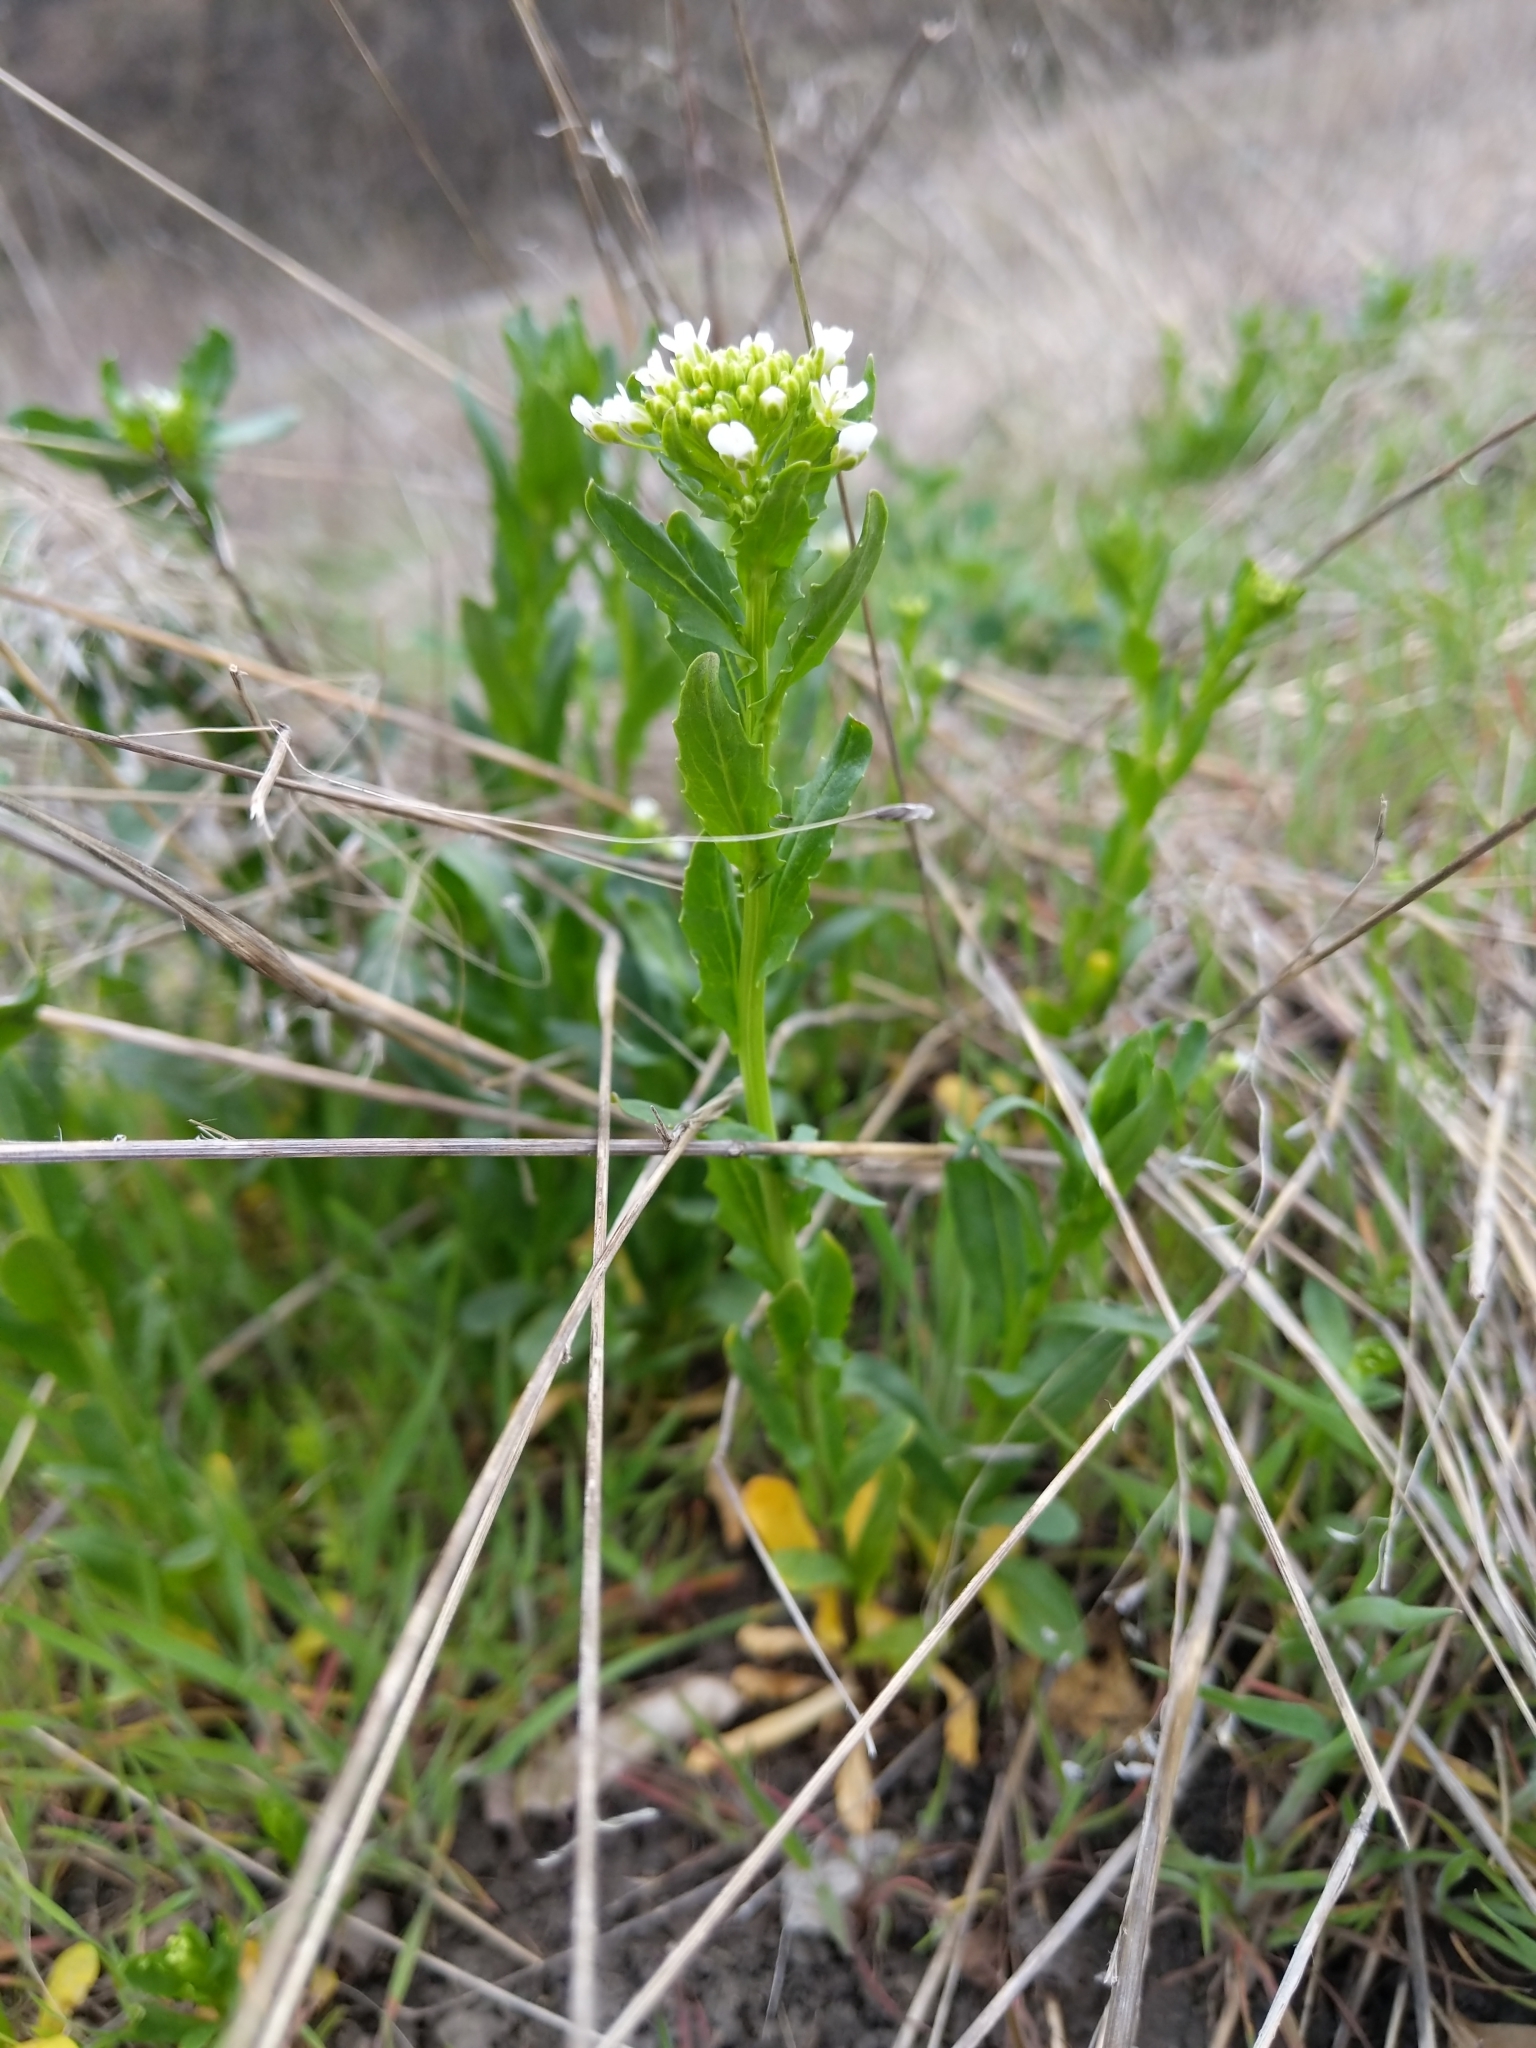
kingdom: Plantae
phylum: Tracheophyta
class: Magnoliopsida
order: Brassicales
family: Brassicaceae
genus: Thlaspi
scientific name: Thlaspi arvense
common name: Field pennycress
